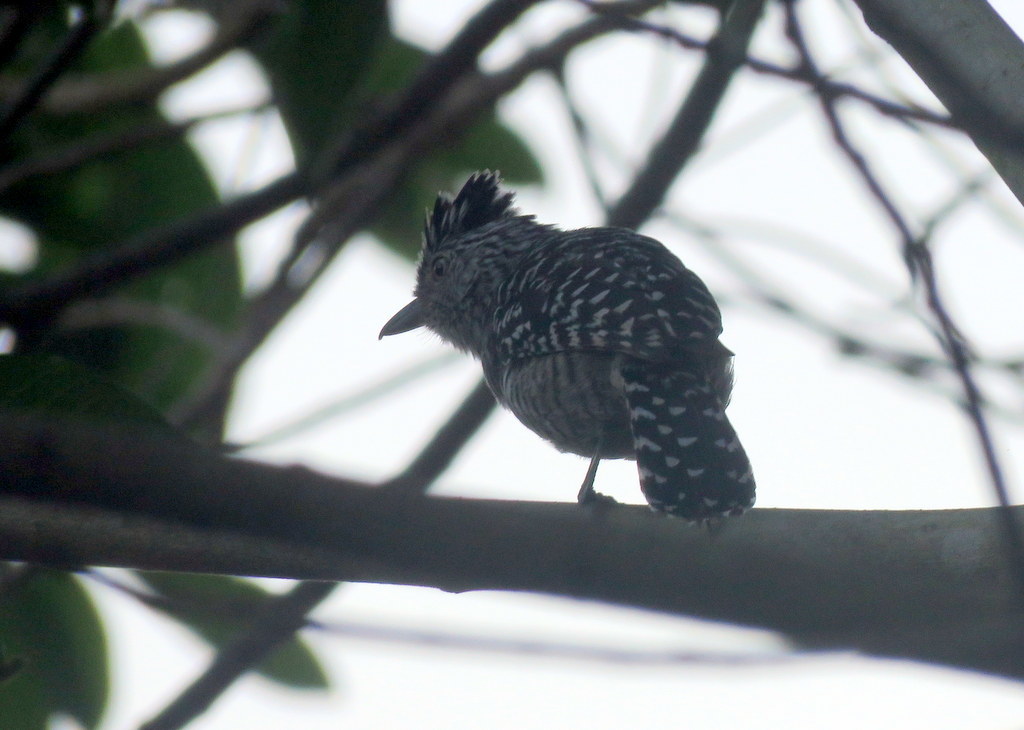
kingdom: Animalia
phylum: Chordata
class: Aves
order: Passeriformes
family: Thamnophilidae
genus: Thamnophilus
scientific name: Thamnophilus doliatus
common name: Barred antshrike
